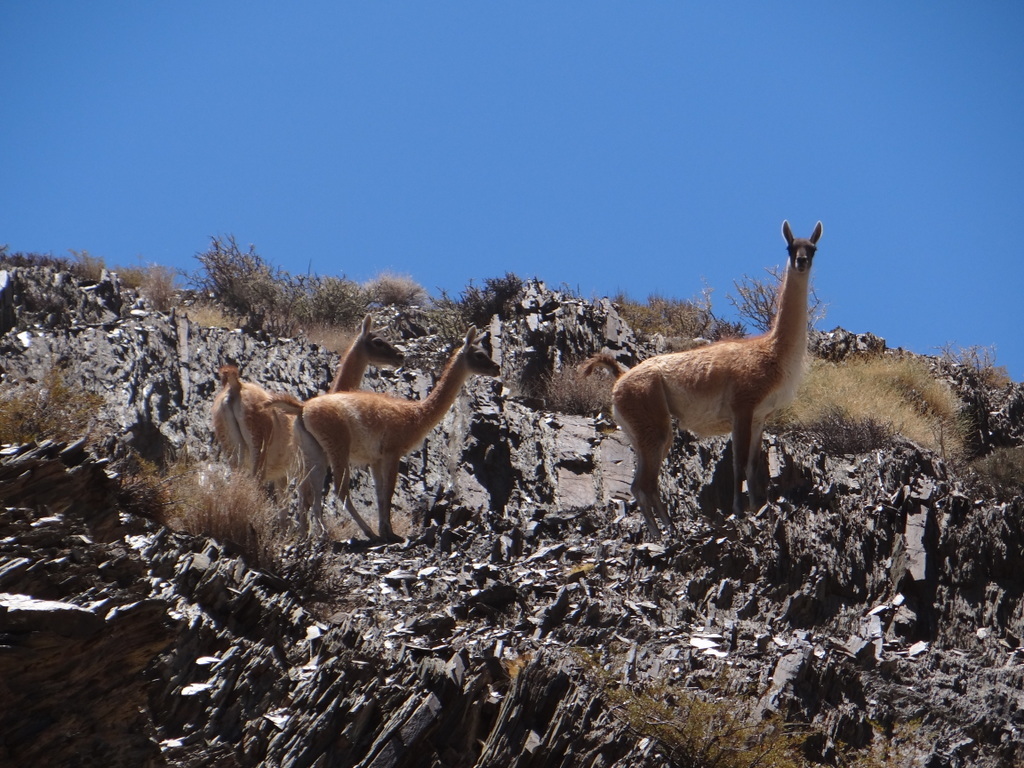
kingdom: Animalia
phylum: Chordata
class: Mammalia
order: Artiodactyla
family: Camelidae
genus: Lama
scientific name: Lama glama
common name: Llama
